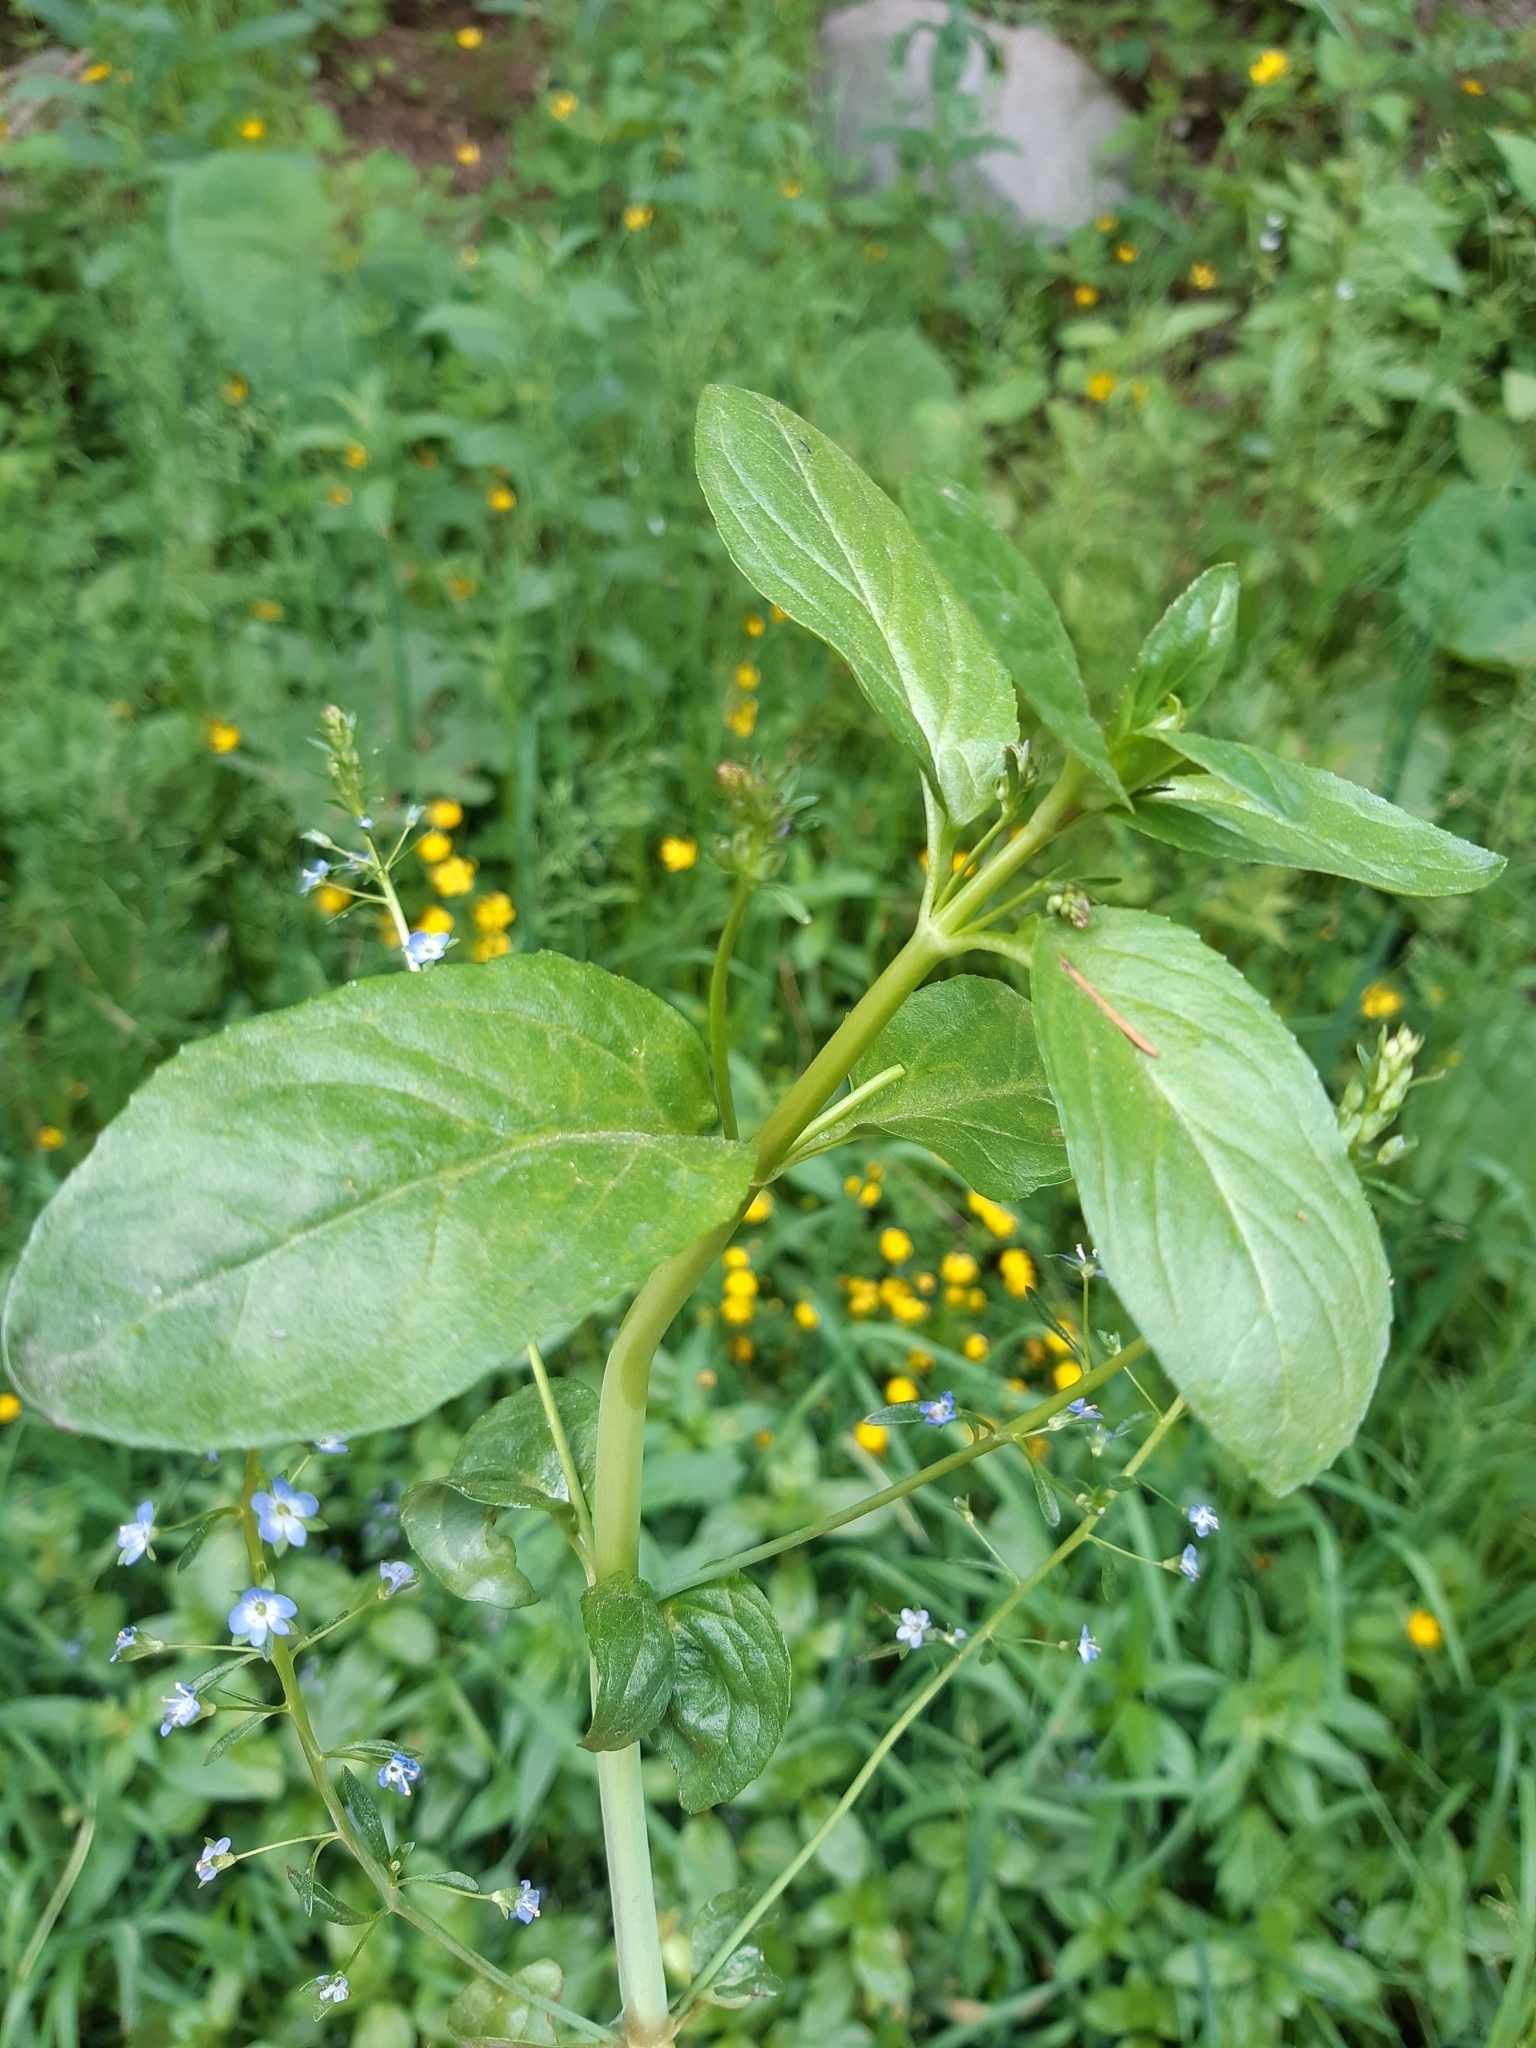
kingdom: Plantae
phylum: Tracheophyta
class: Magnoliopsida
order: Lamiales
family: Plantaginaceae
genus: Veronica
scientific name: Veronica beccabunga
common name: Brooklime
